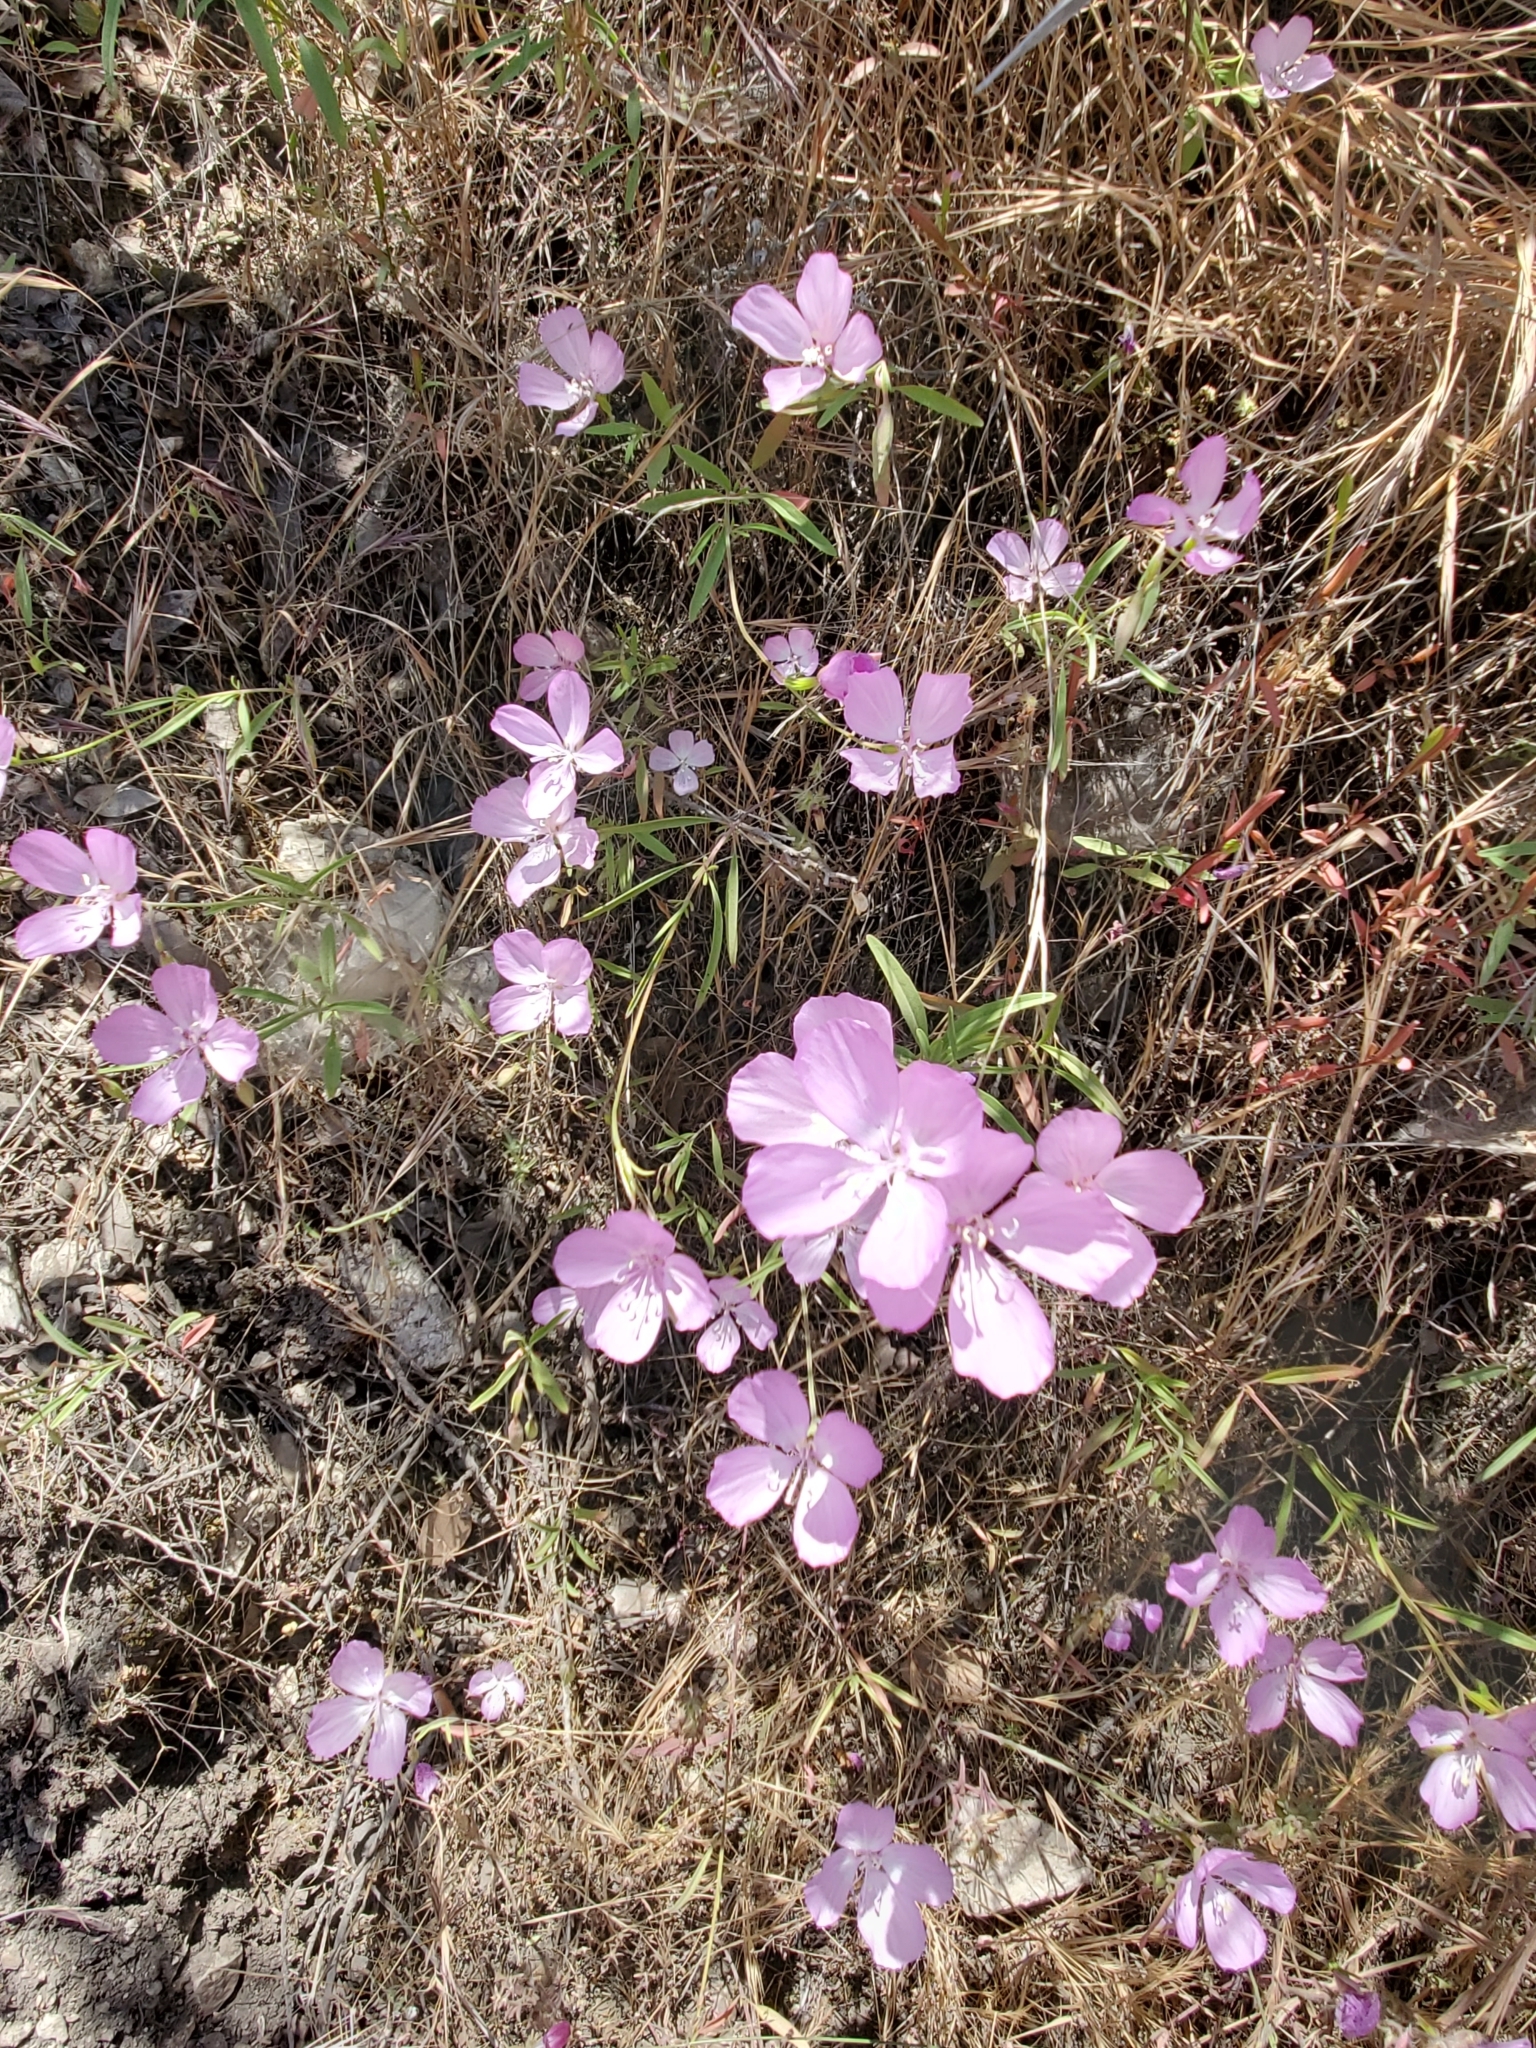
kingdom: Plantae
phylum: Tracheophyta
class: Magnoliopsida
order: Myrtales
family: Onagraceae
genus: Clarkia
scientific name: Clarkia bottae
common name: Punch-bowl godetia
